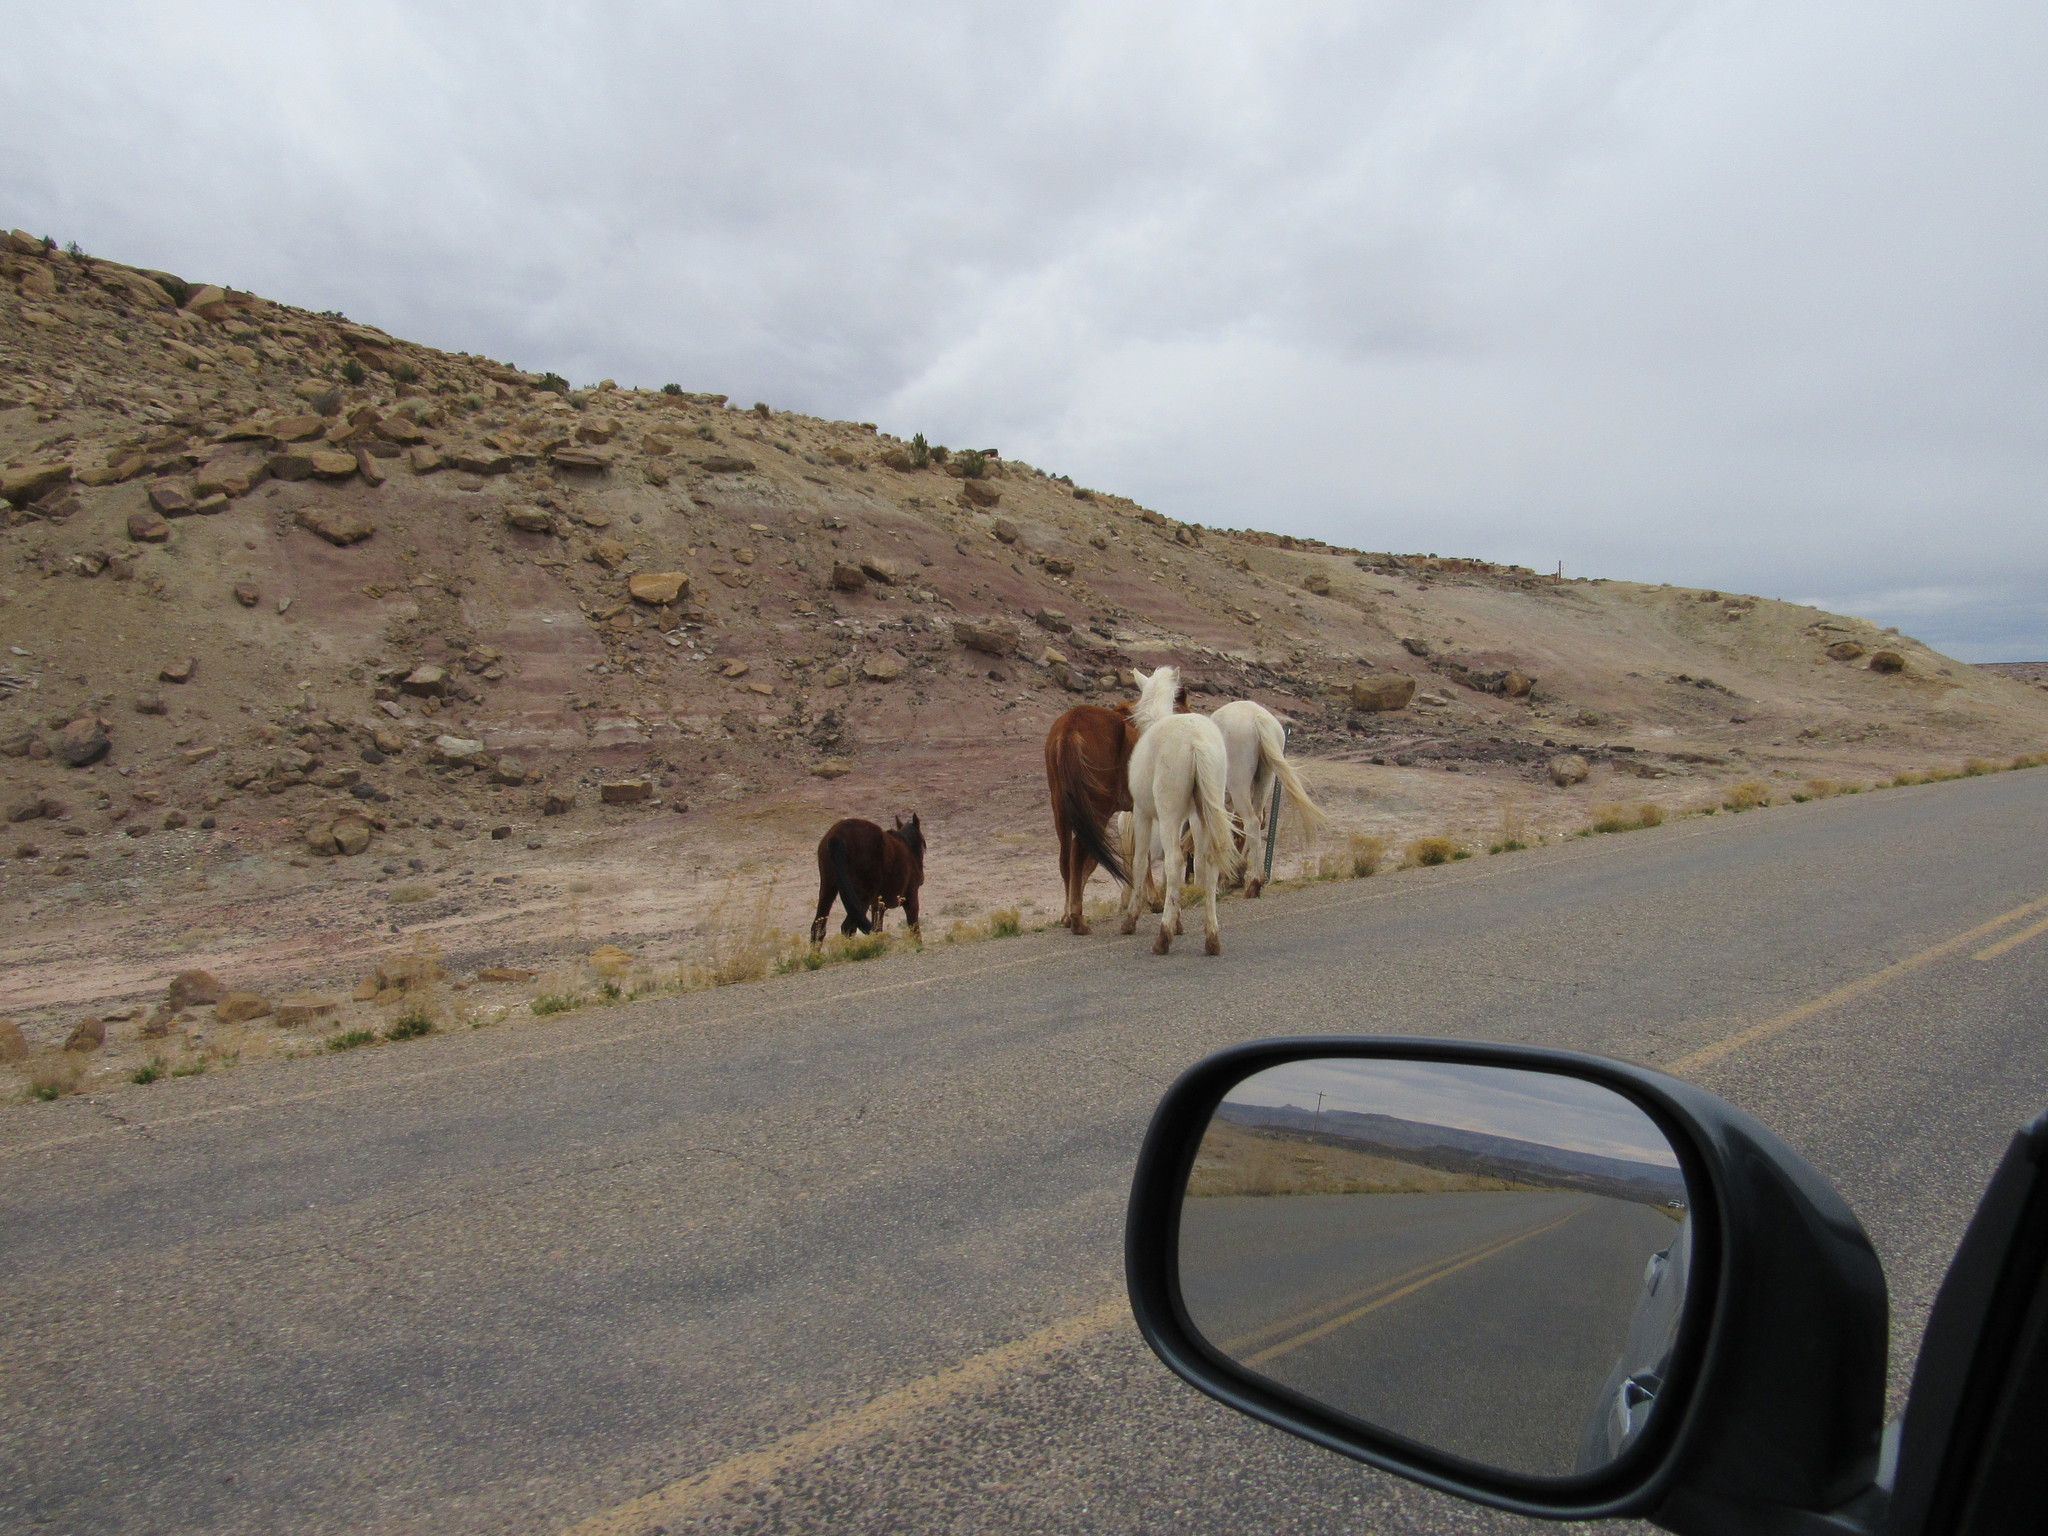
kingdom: Animalia
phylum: Chordata
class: Mammalia
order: Perissodactyla
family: Equidae
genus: Equus
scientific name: Equus caballus
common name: Horse
